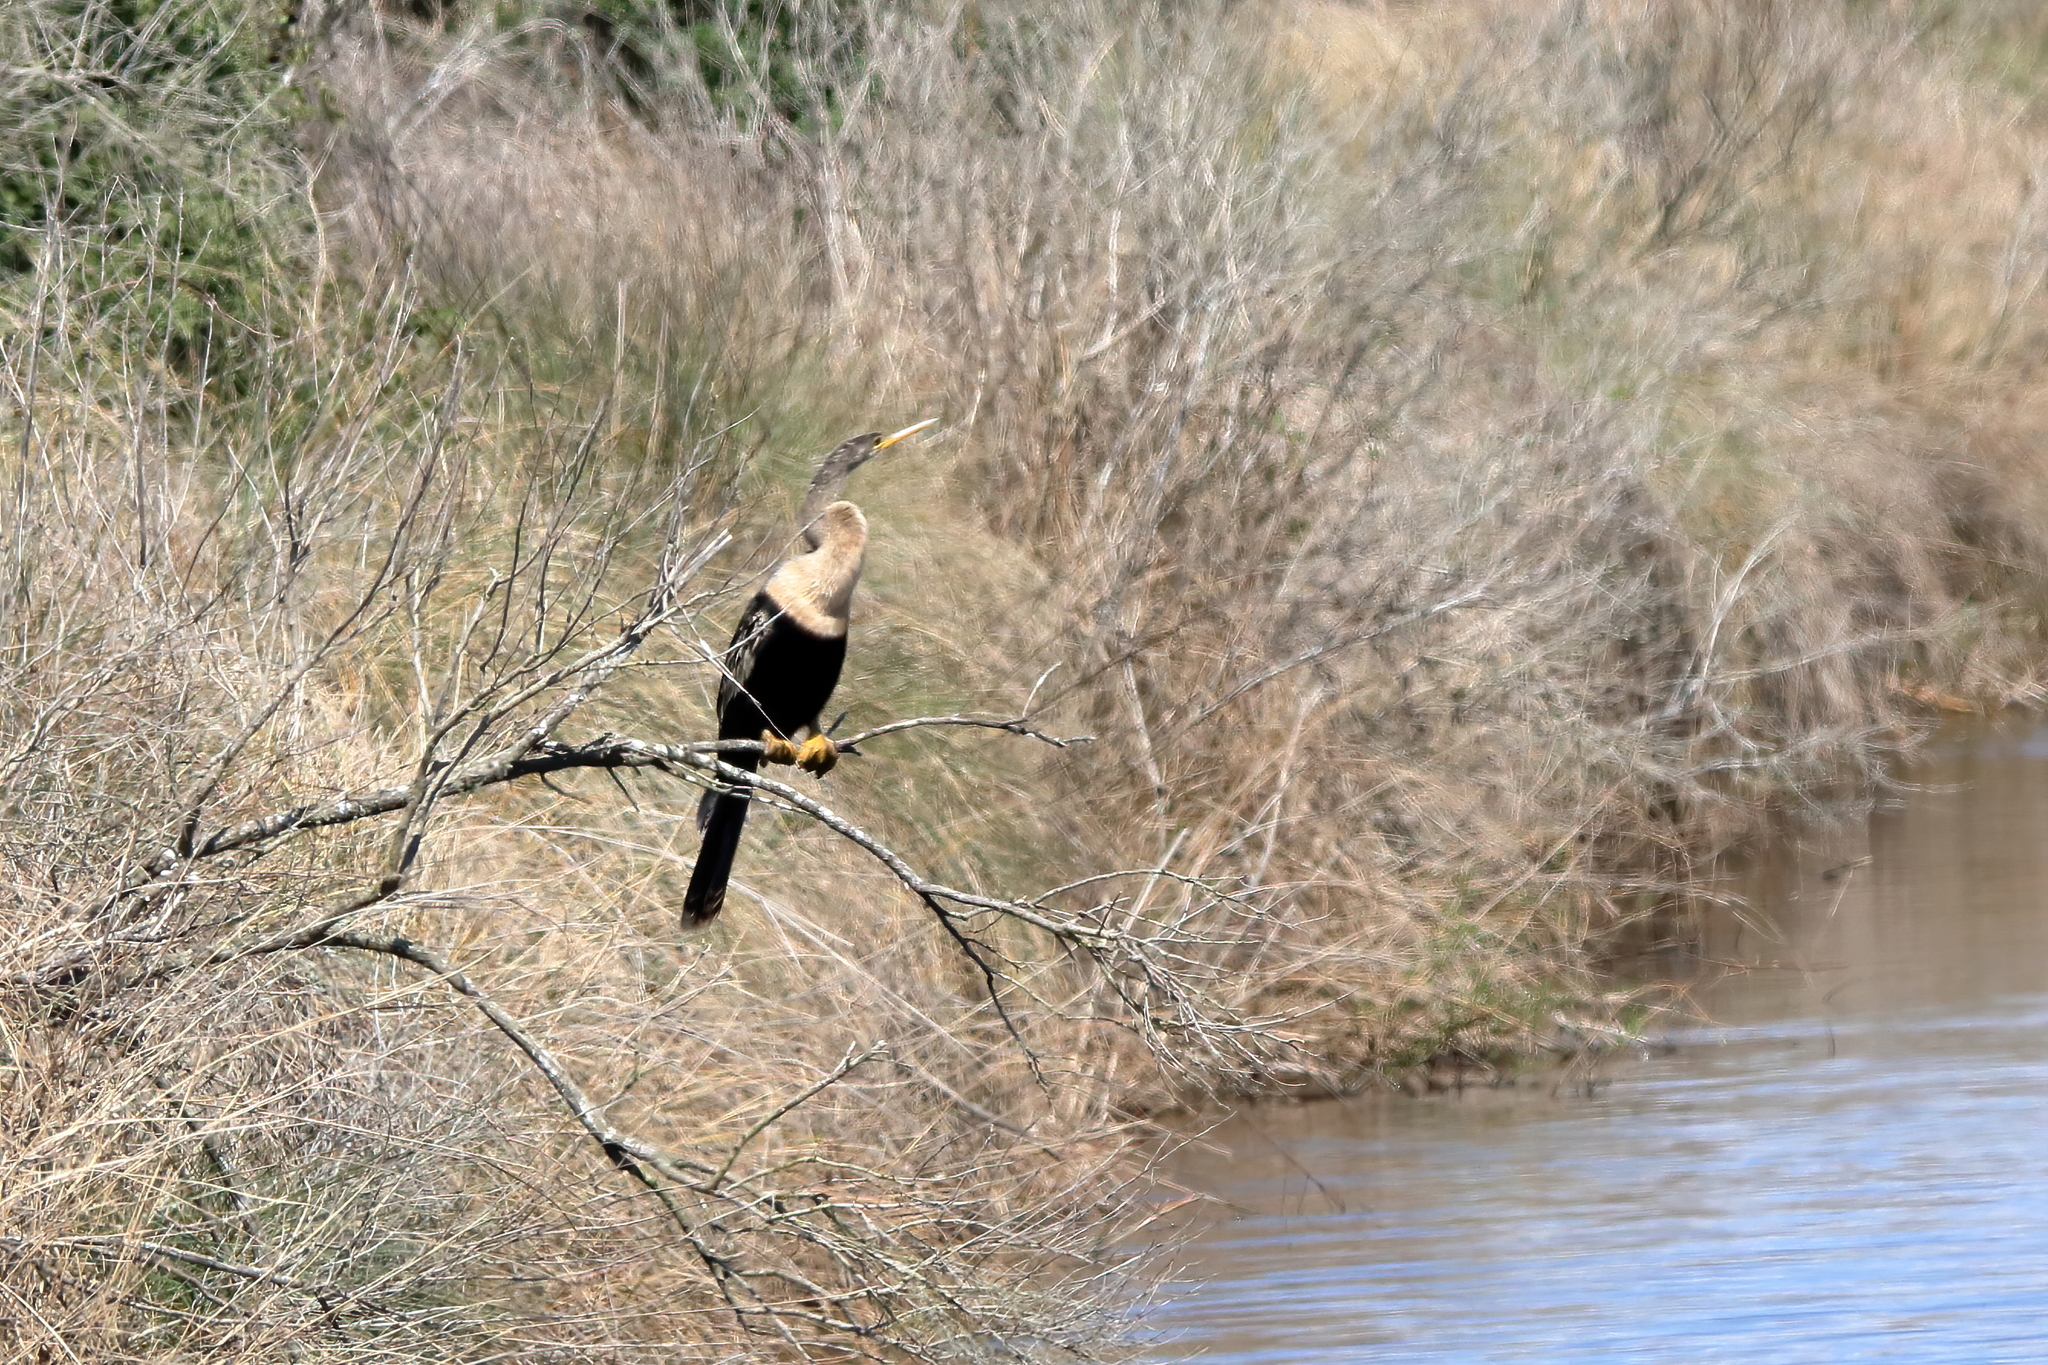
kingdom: Animalia
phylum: Chordata
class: Aves
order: Suliformes
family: Anhingidae
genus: Anhinga
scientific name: Anhinga anhinga
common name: Anhinga
